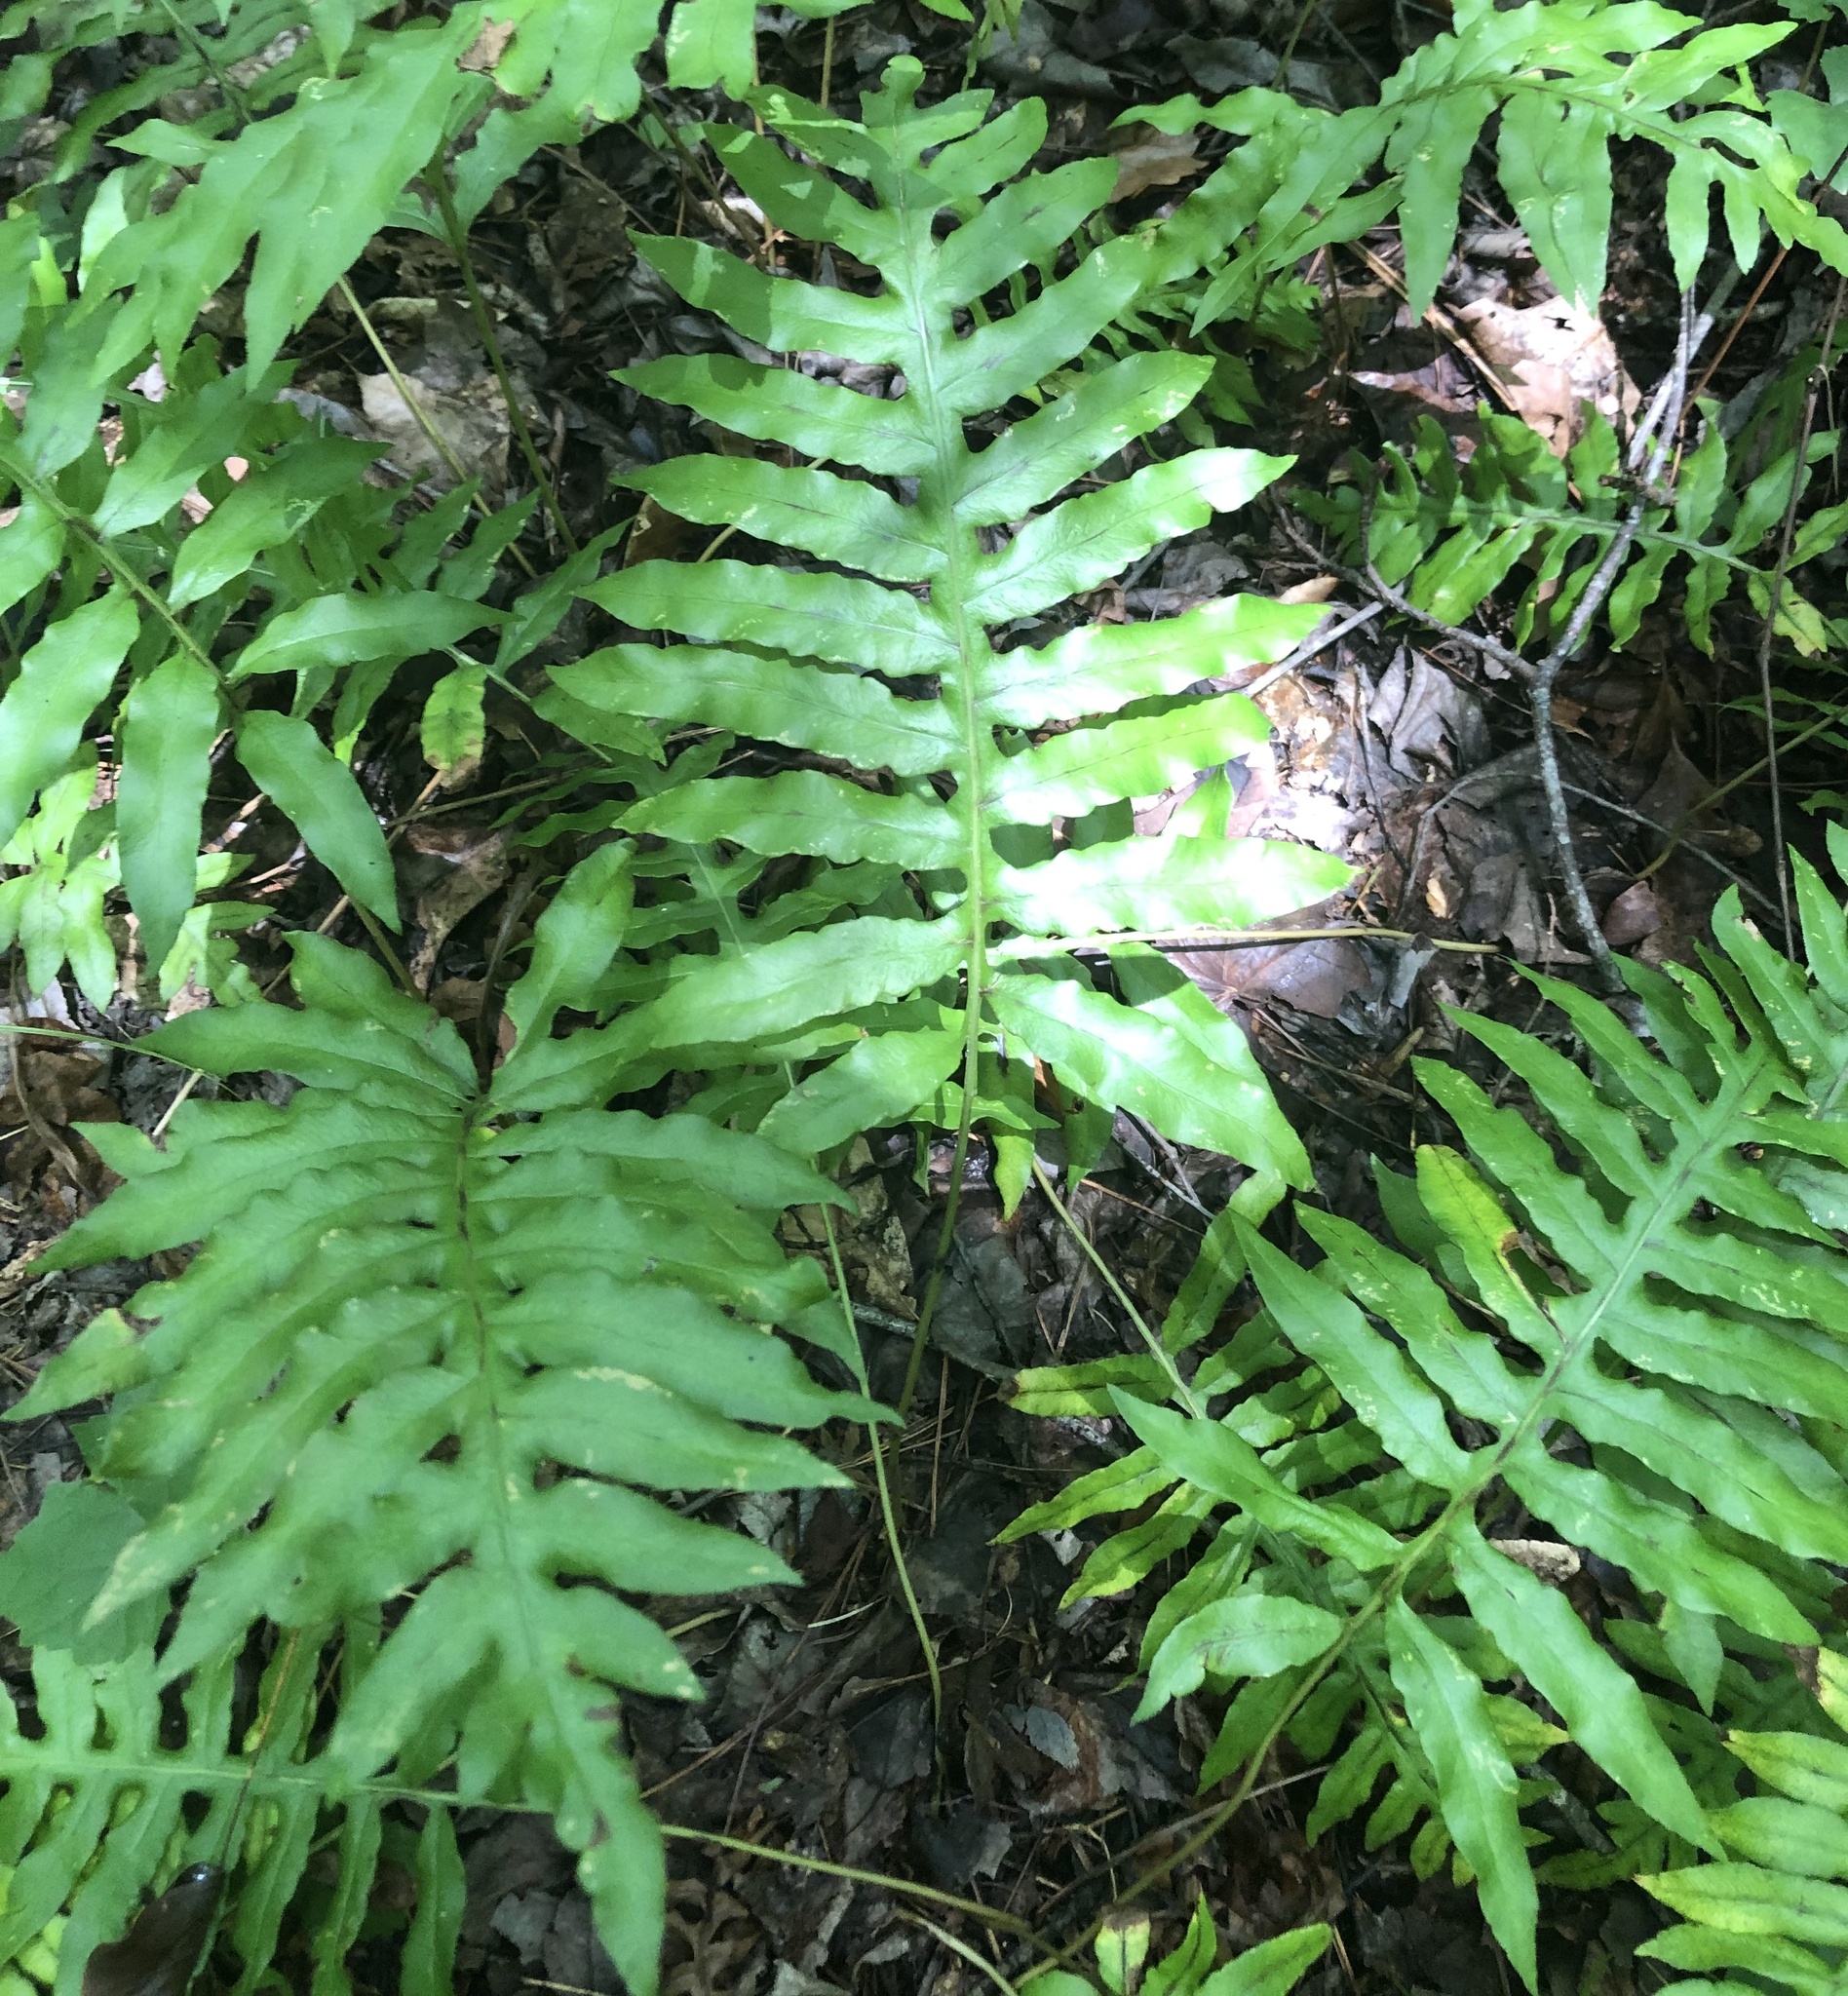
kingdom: Plantae
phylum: Tracheophyta
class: Polypodiopsida
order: Polypodiales
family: Blechnaceae
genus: Lorinseria
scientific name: Lorinseria areolata
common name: Dwarf chain fern
